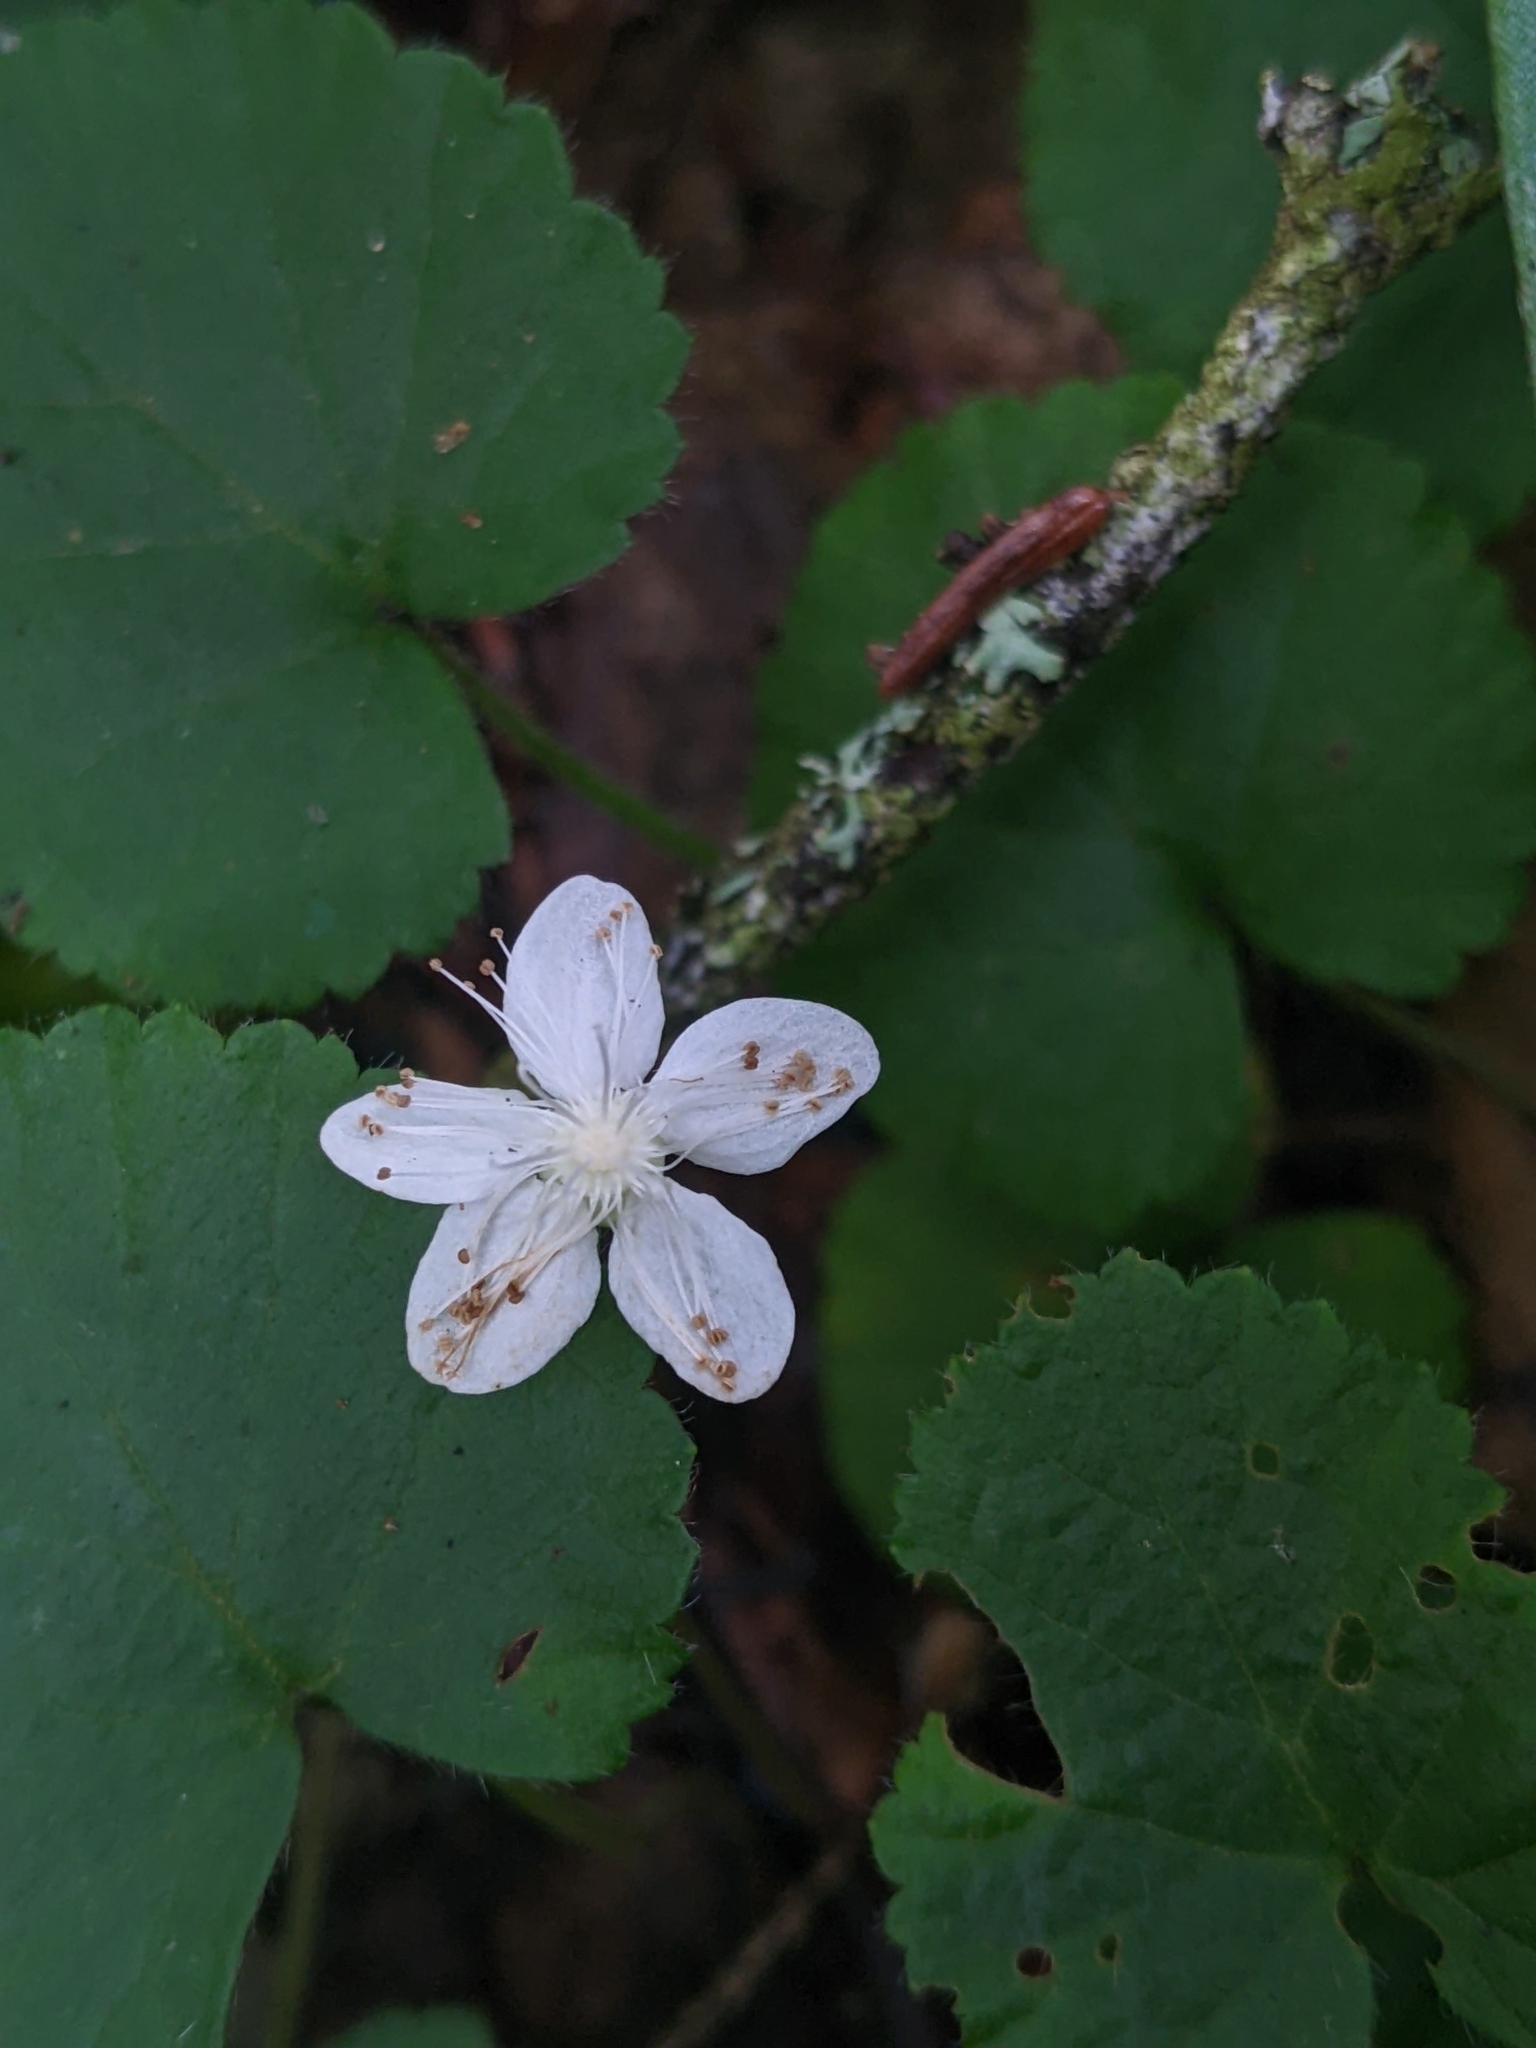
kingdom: Plantae
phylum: Tracheophyta
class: Magnoliopsida
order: Rosales
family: Rosaceae
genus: Dalibarda
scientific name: Dalibarda repens
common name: Dewdrop
